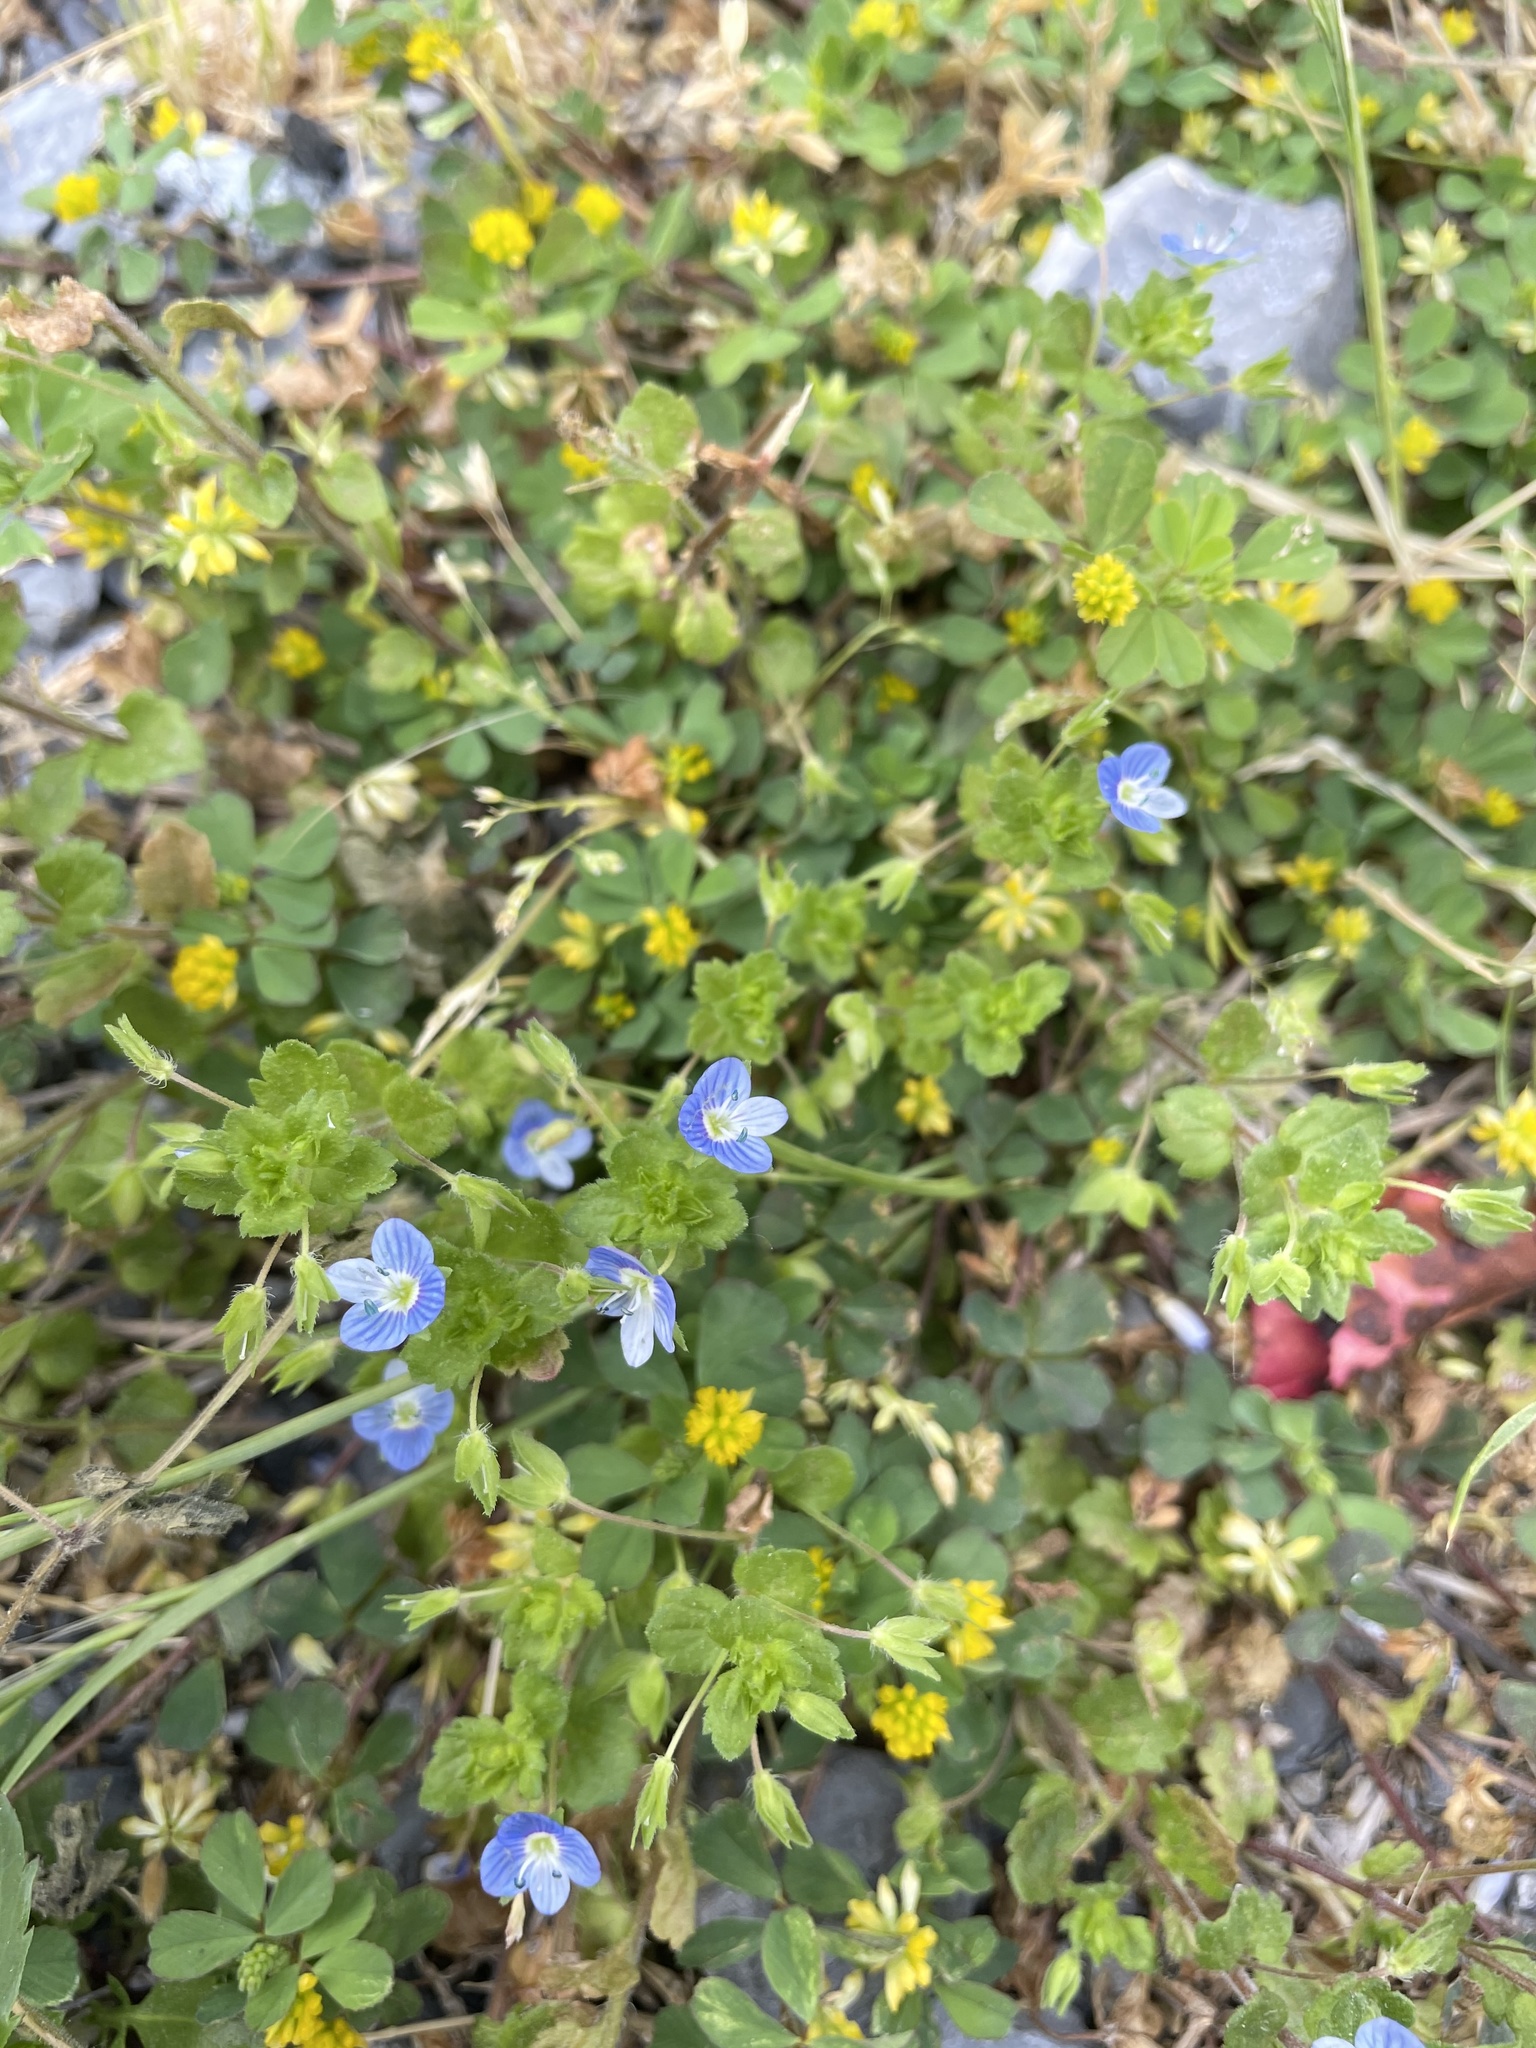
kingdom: Plantae
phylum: Tracheophyta
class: Magnoliopsida
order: Lamiales
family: Plantaginaceae
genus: Veronica
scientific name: Veronica persica
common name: Common field-speedwell
